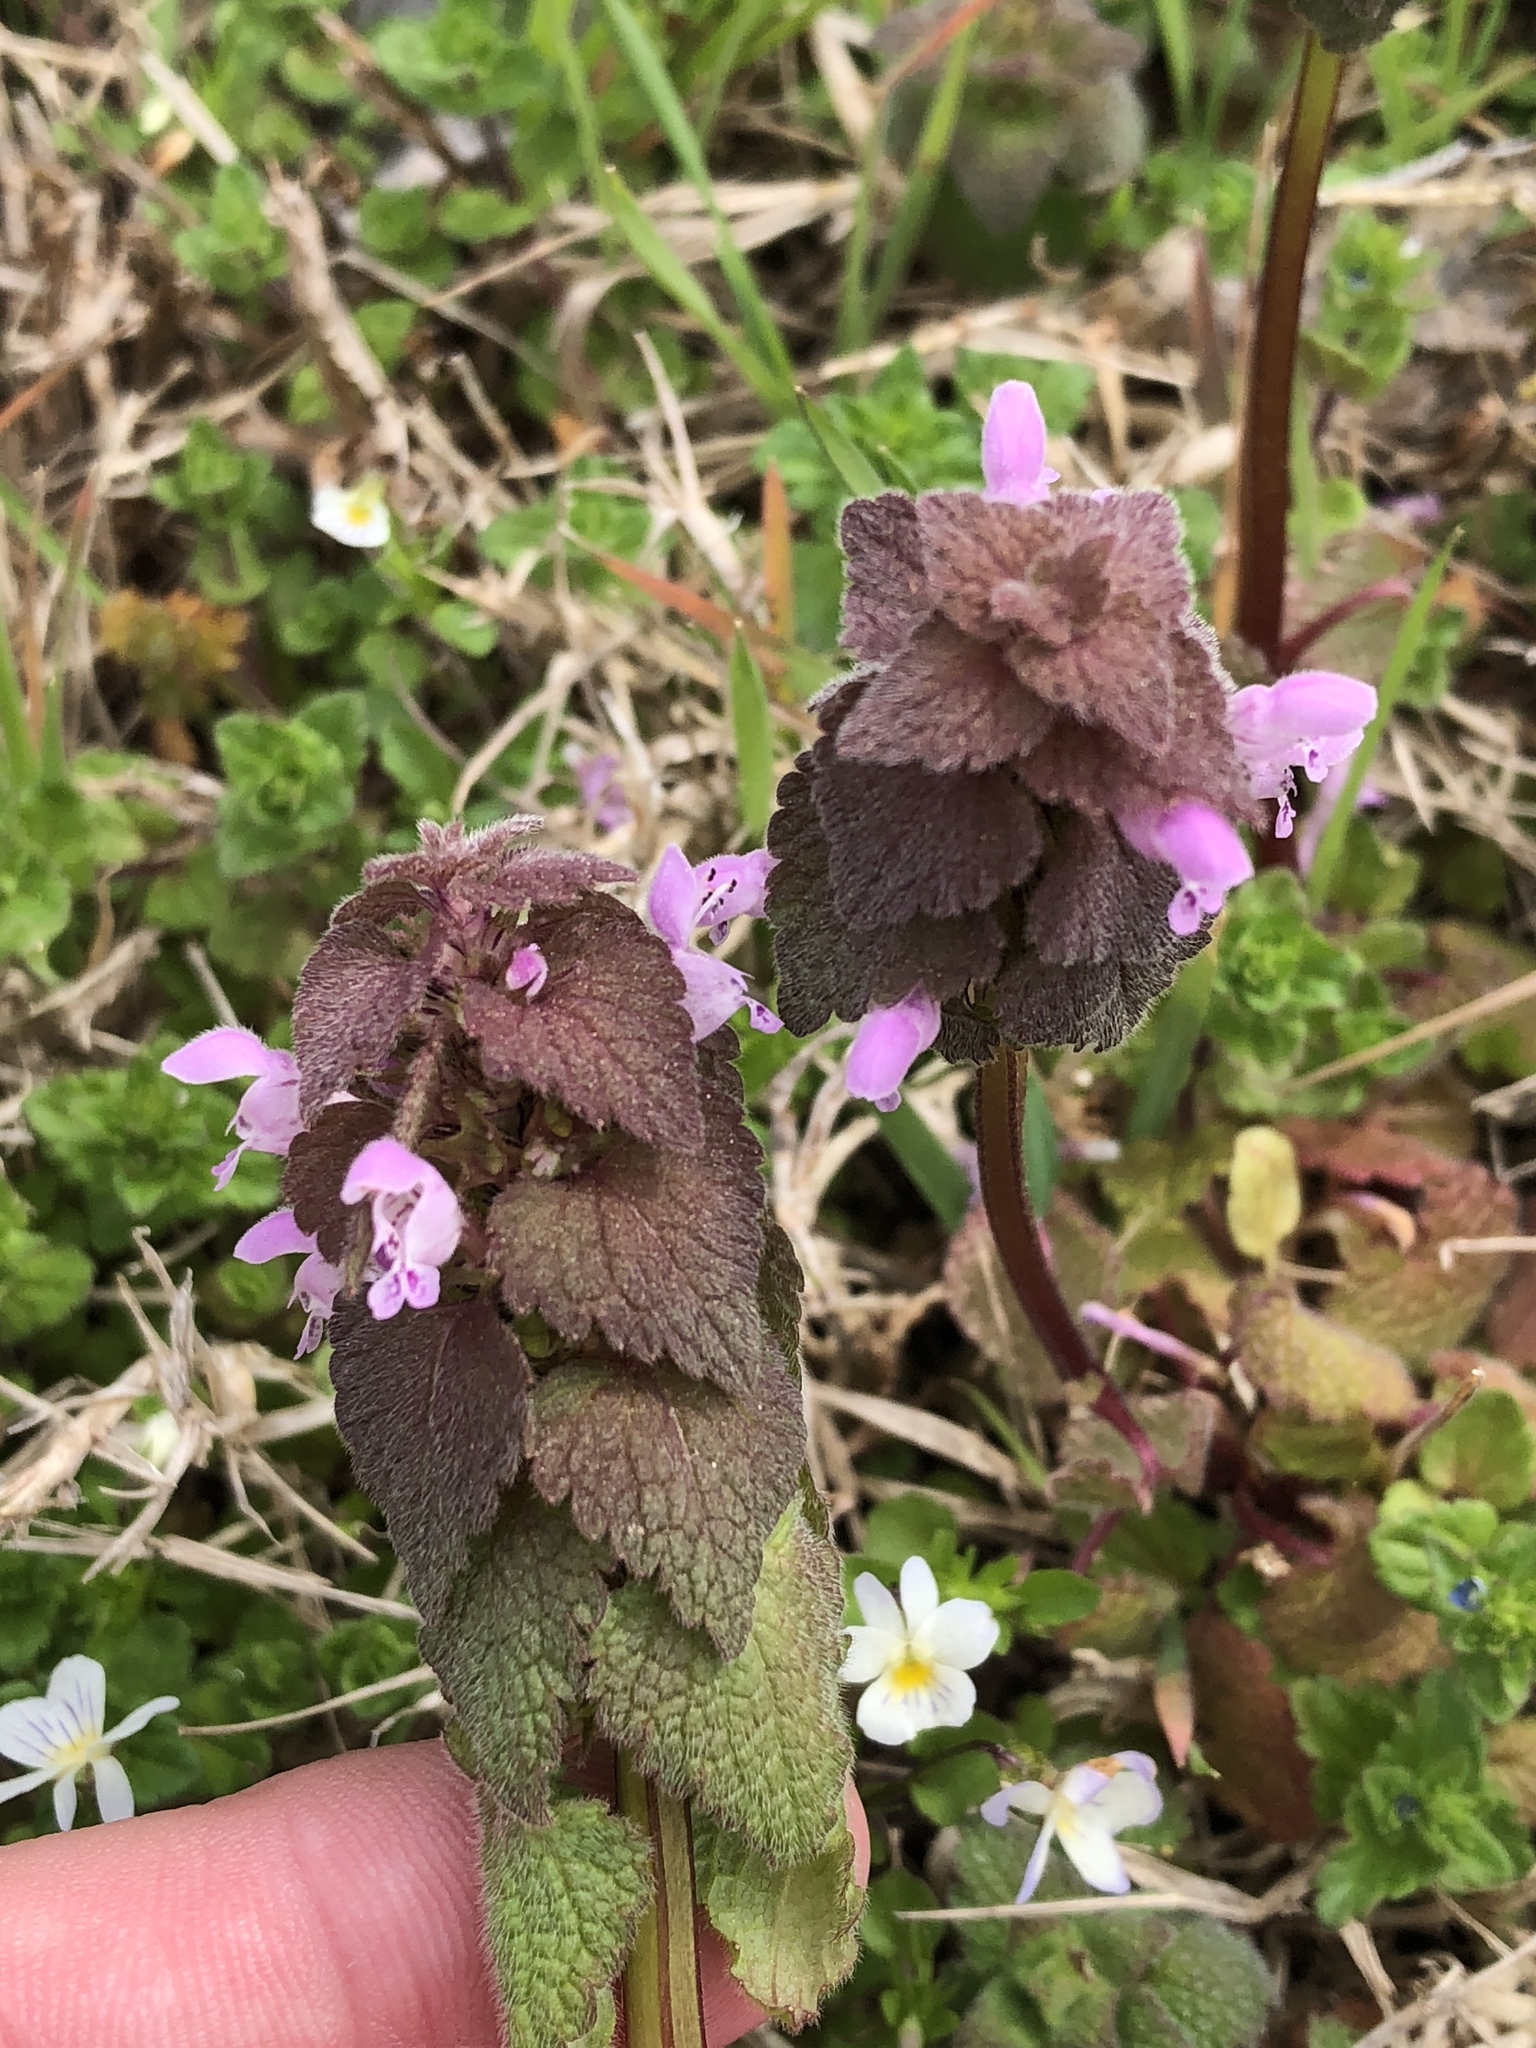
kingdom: Plantae
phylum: Tracheophyta
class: Magnoliopsida
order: Lamiales
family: Lamiaceae
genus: Lamium
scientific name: Lamium purpureum
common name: Red dead-nettle
